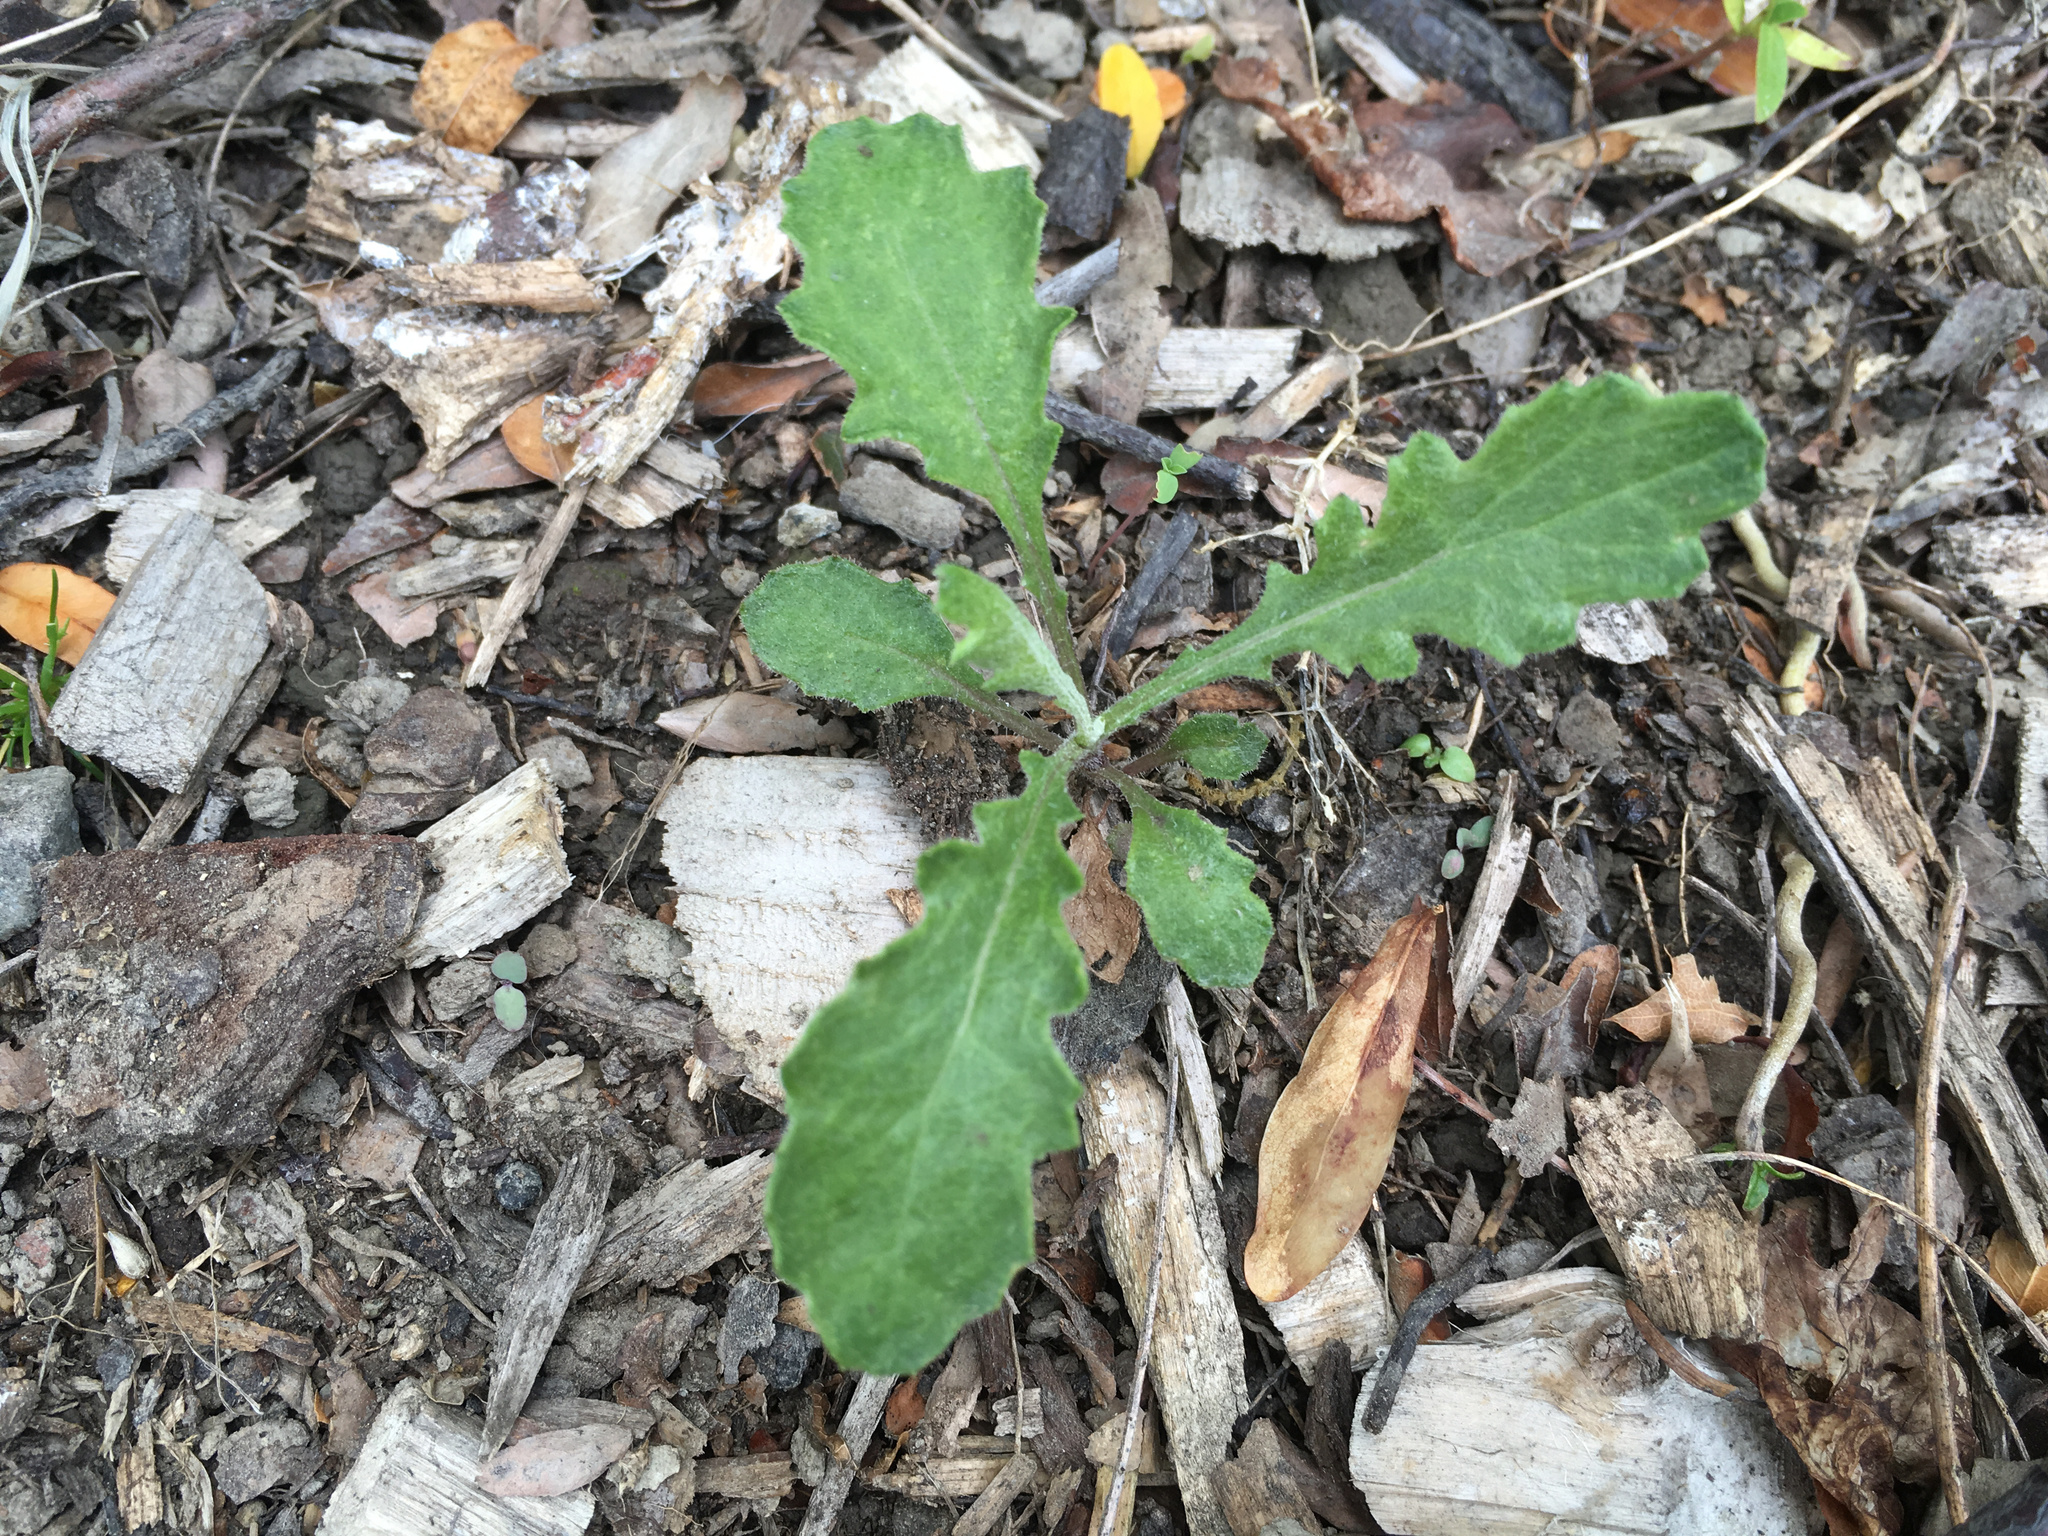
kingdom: Plantae
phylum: Tracheophyta
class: Magnoliopsida
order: Asterales
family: Asteraceae
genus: Senecio
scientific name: Senecio glomeratus
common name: Cutleaf burnweed
